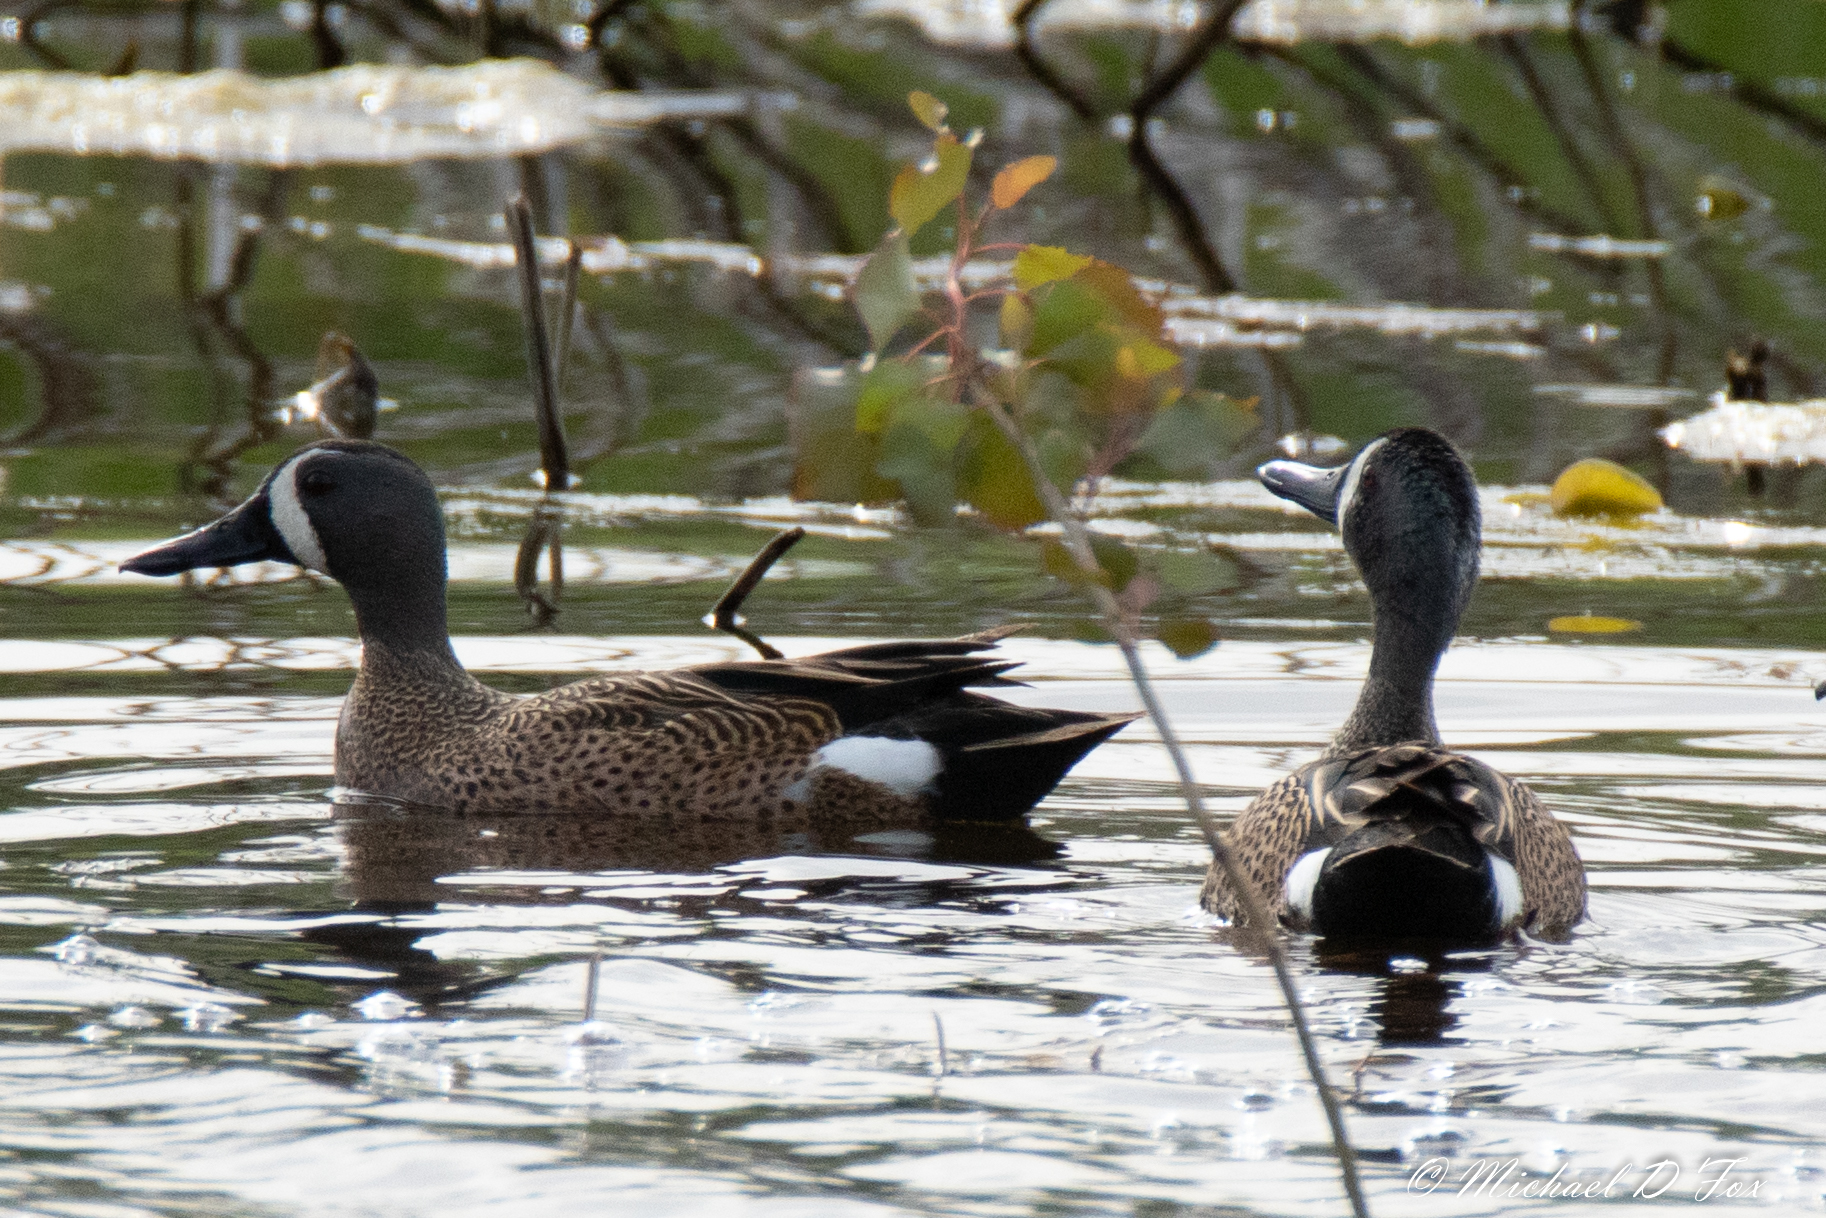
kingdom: Animalia
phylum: Chordata
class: Aves
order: Anseriformes
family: Anatidae
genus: Spatula
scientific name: Spatula discors
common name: Blue-winged teal
